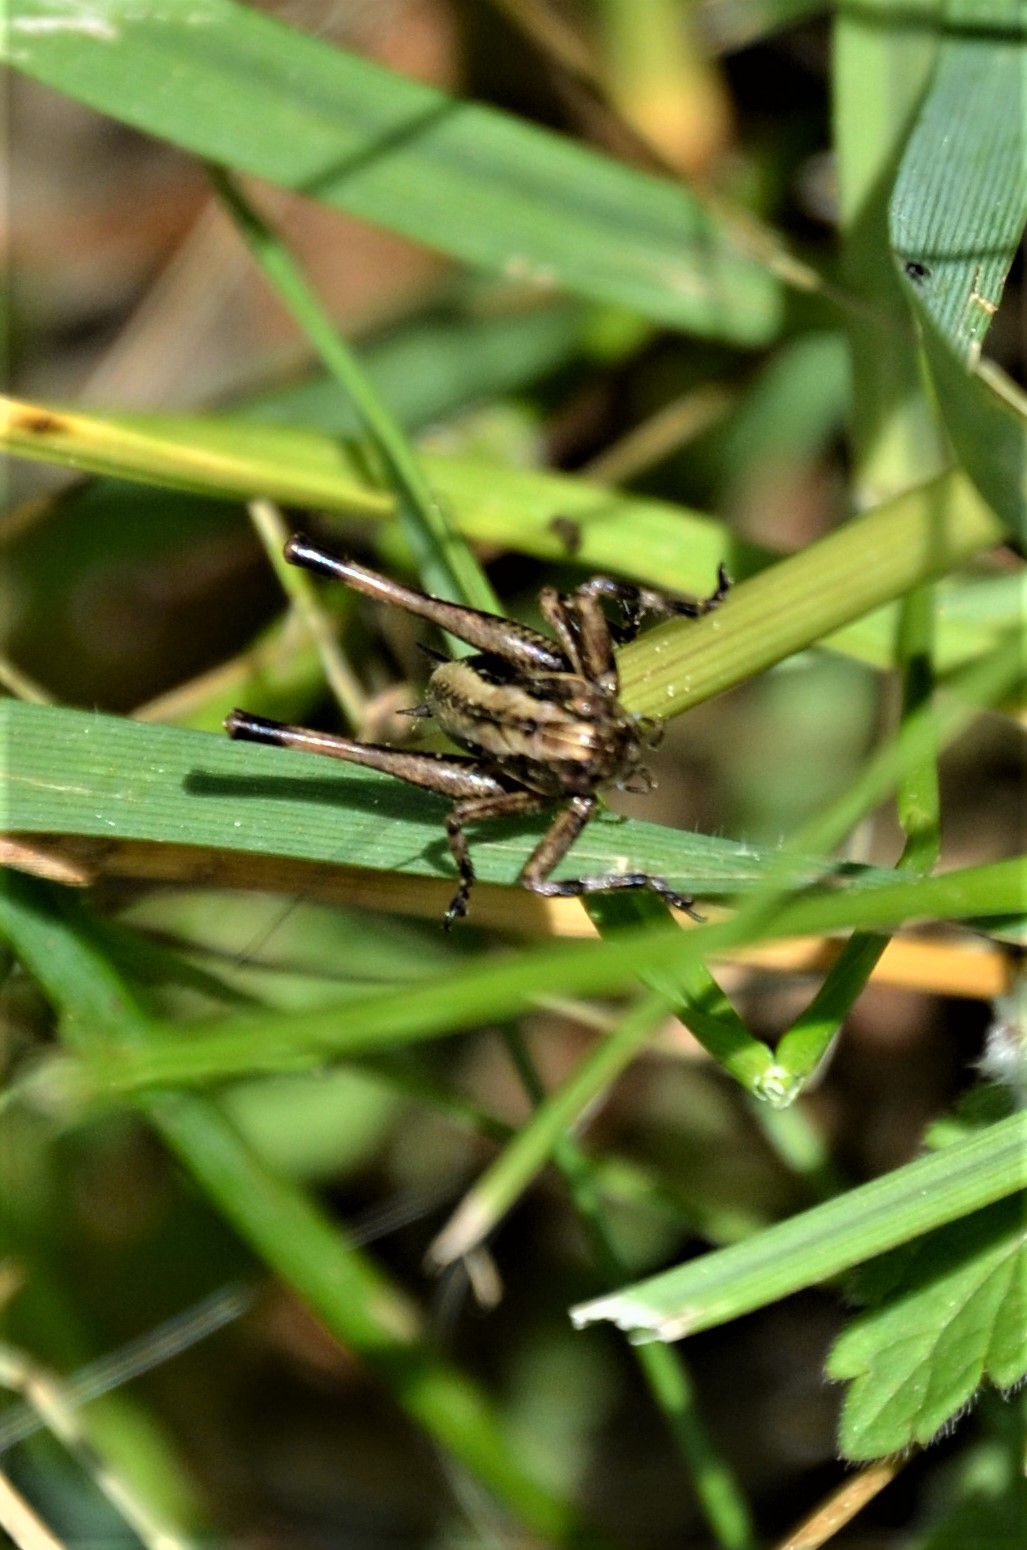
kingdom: Animalia
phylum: Arthropoda
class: Insecta
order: Orthoptera
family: Tettigoniidae
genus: Pholidoptera
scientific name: Pholidoptera griseoaptera
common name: Dark bush-cricket
